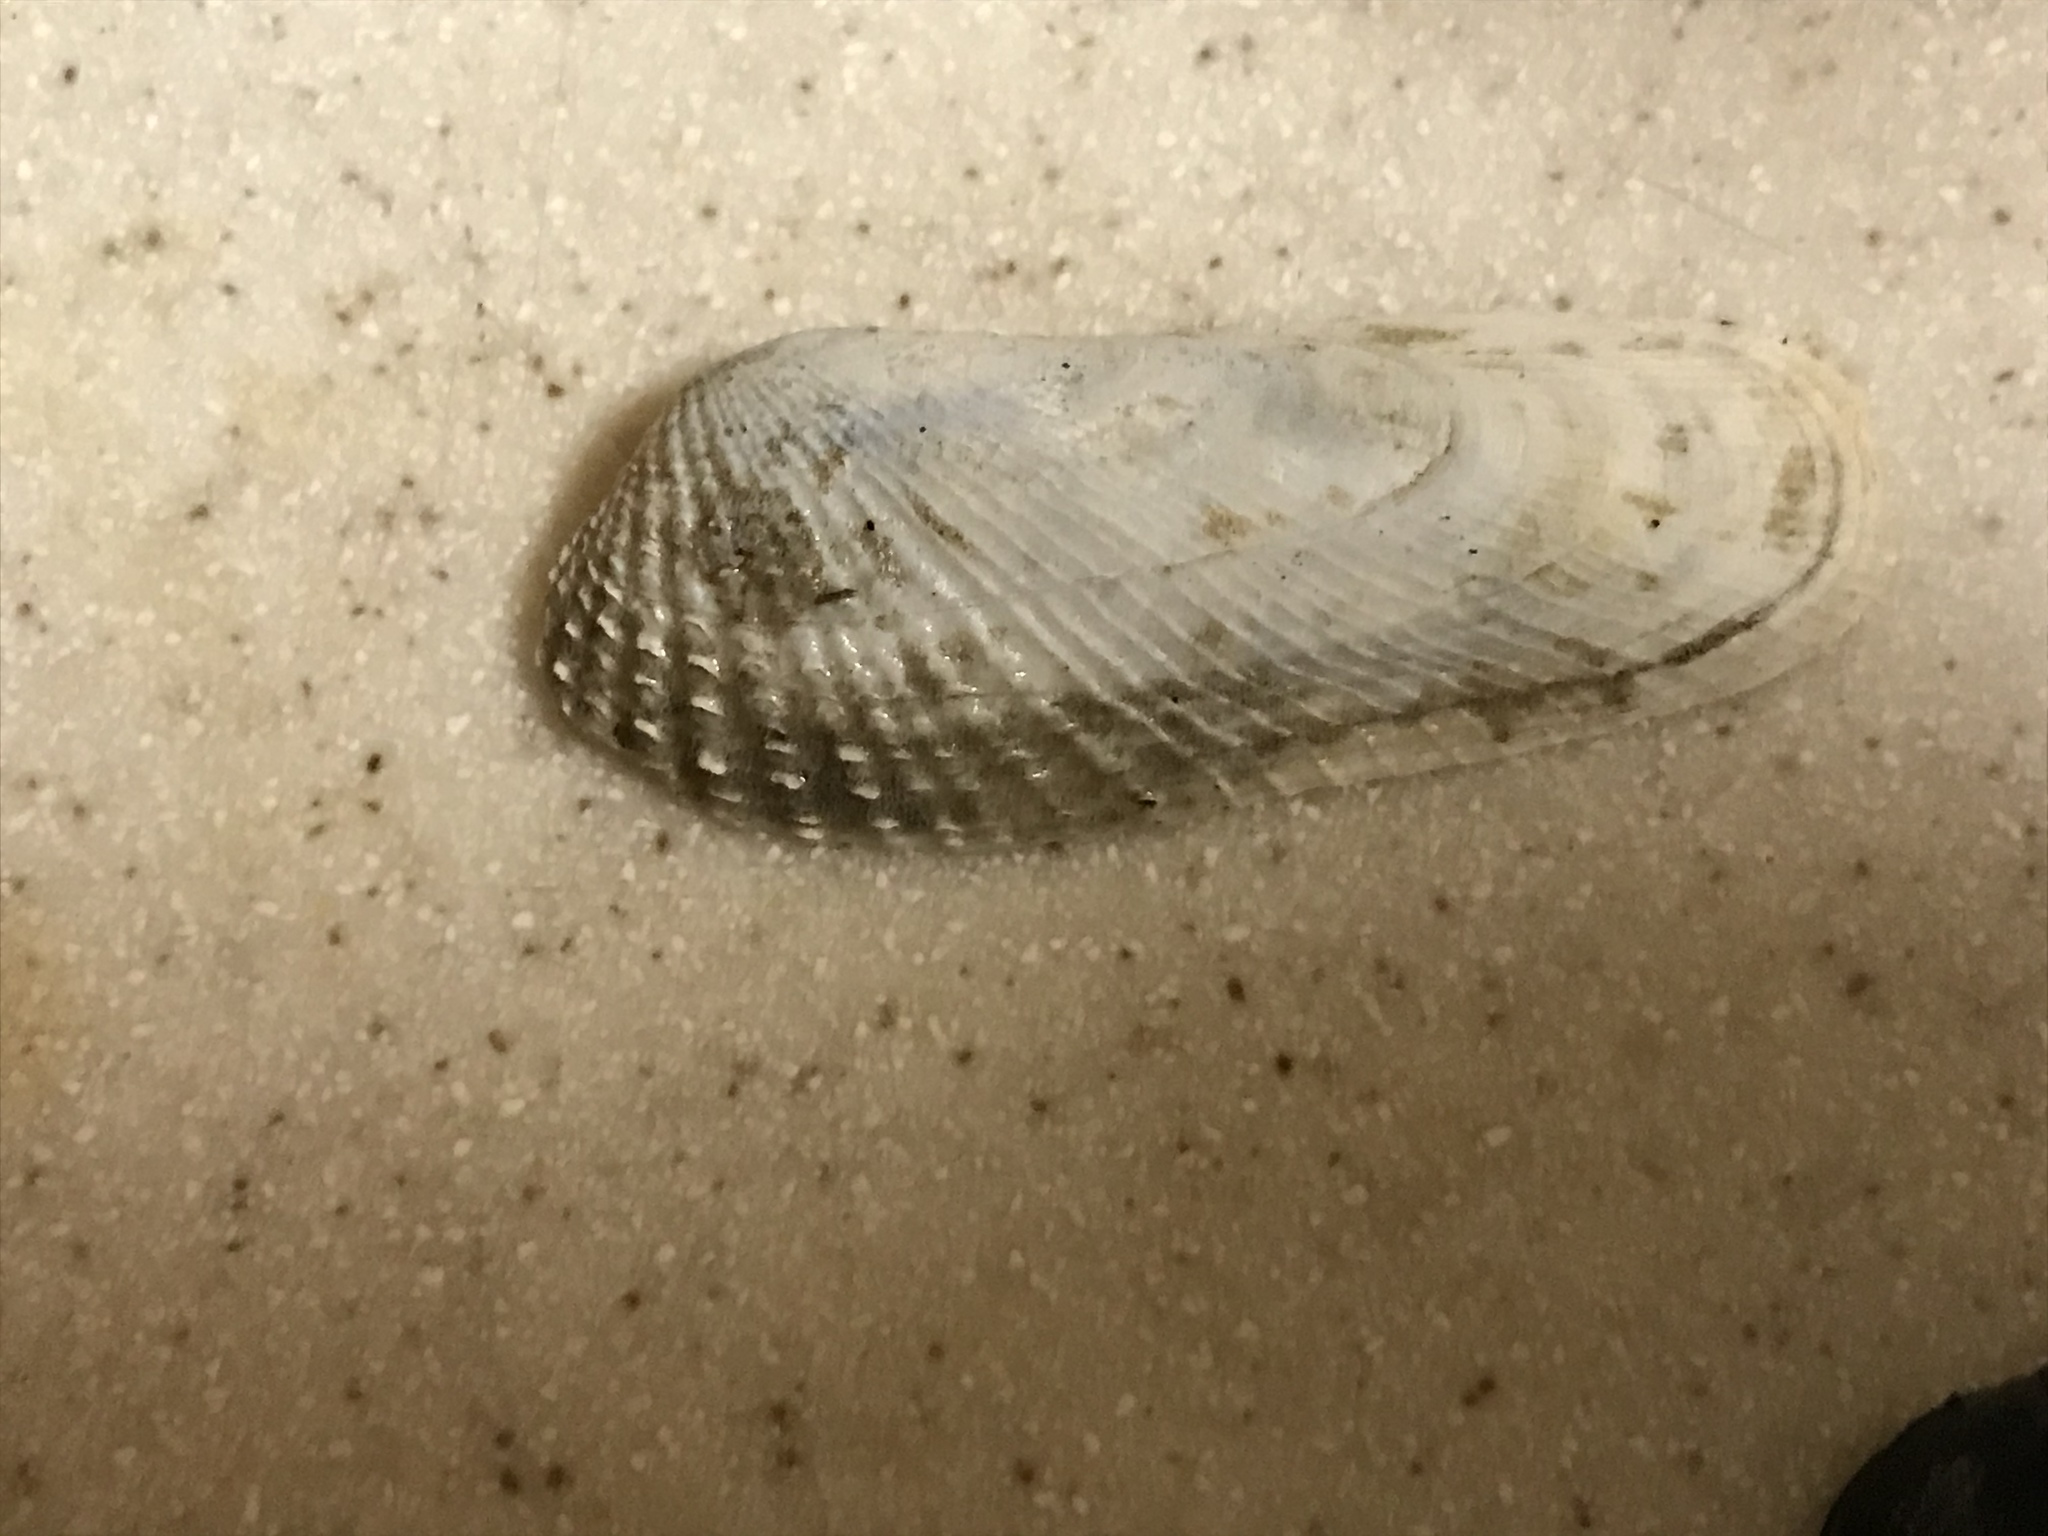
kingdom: Animalia
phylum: Mollusca
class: Bivalvia
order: Venerida
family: Veneridae
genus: Petricolaria
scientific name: Petricolaria pholadiformis
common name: American piddock
